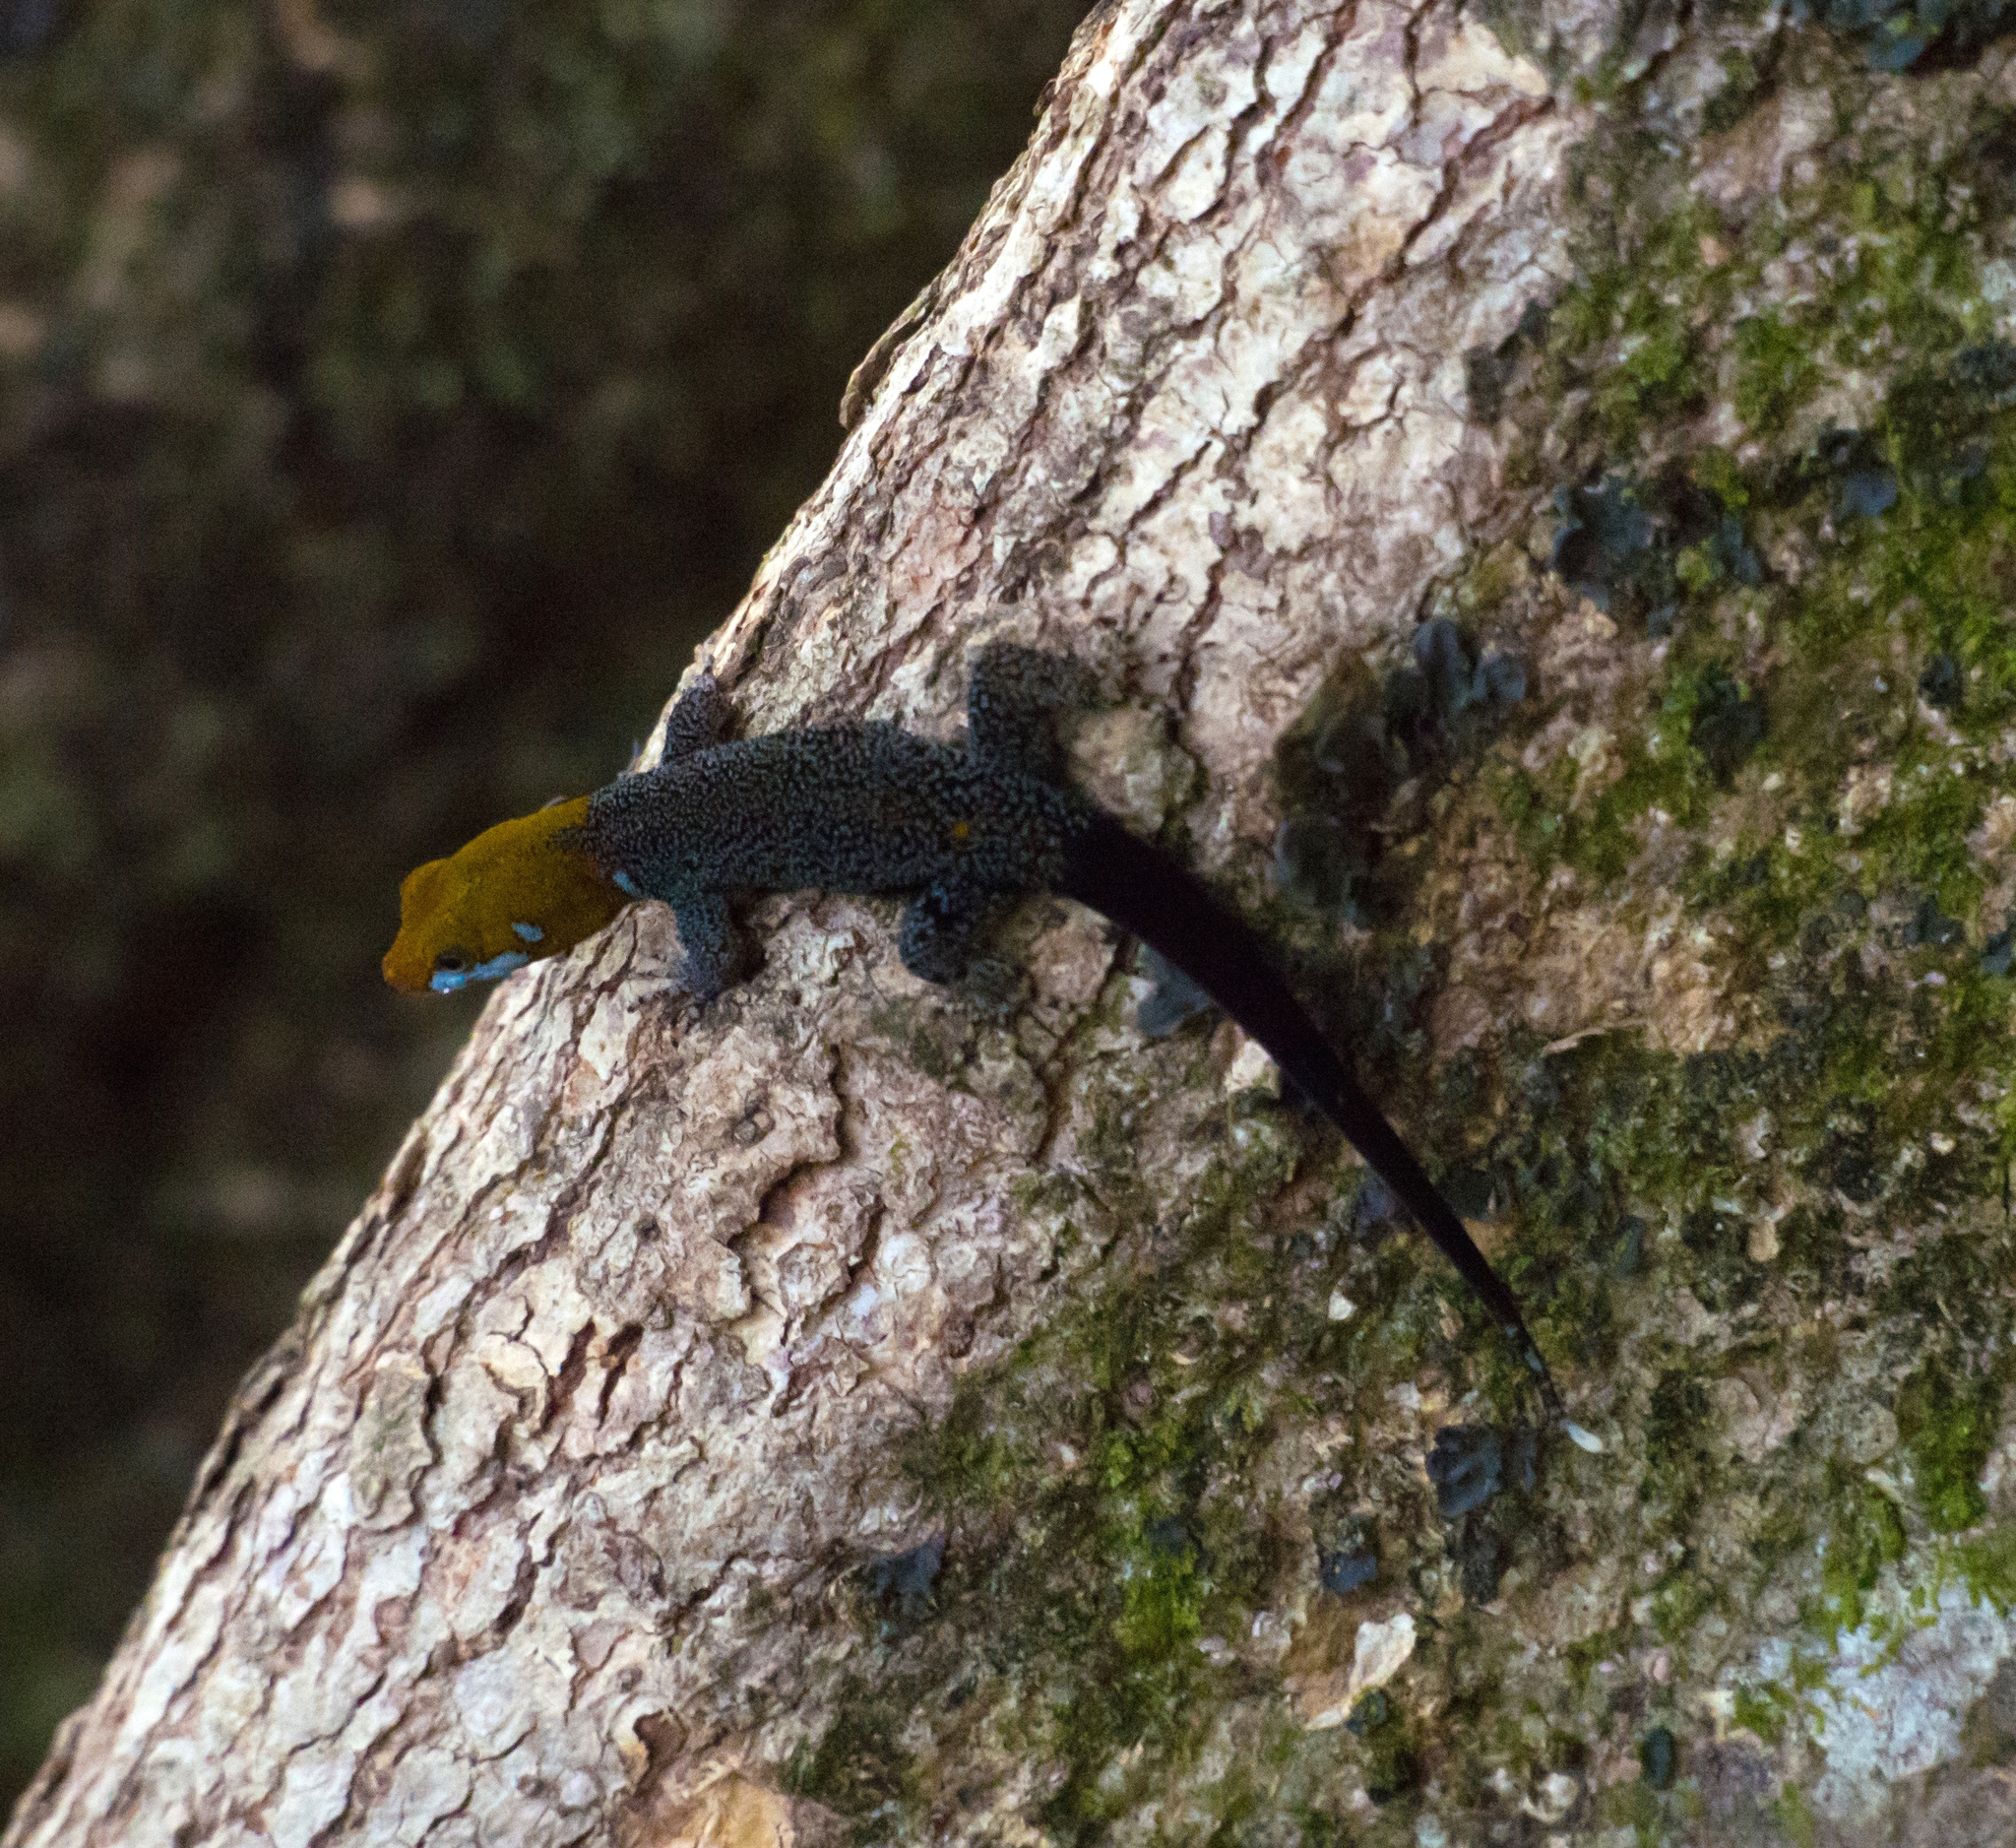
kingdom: Animalia
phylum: Chordata
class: Squamata
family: Sphaerodactylidae
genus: Gonatodes
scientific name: Gonatodes albogularis
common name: Yellow-headed gecko
